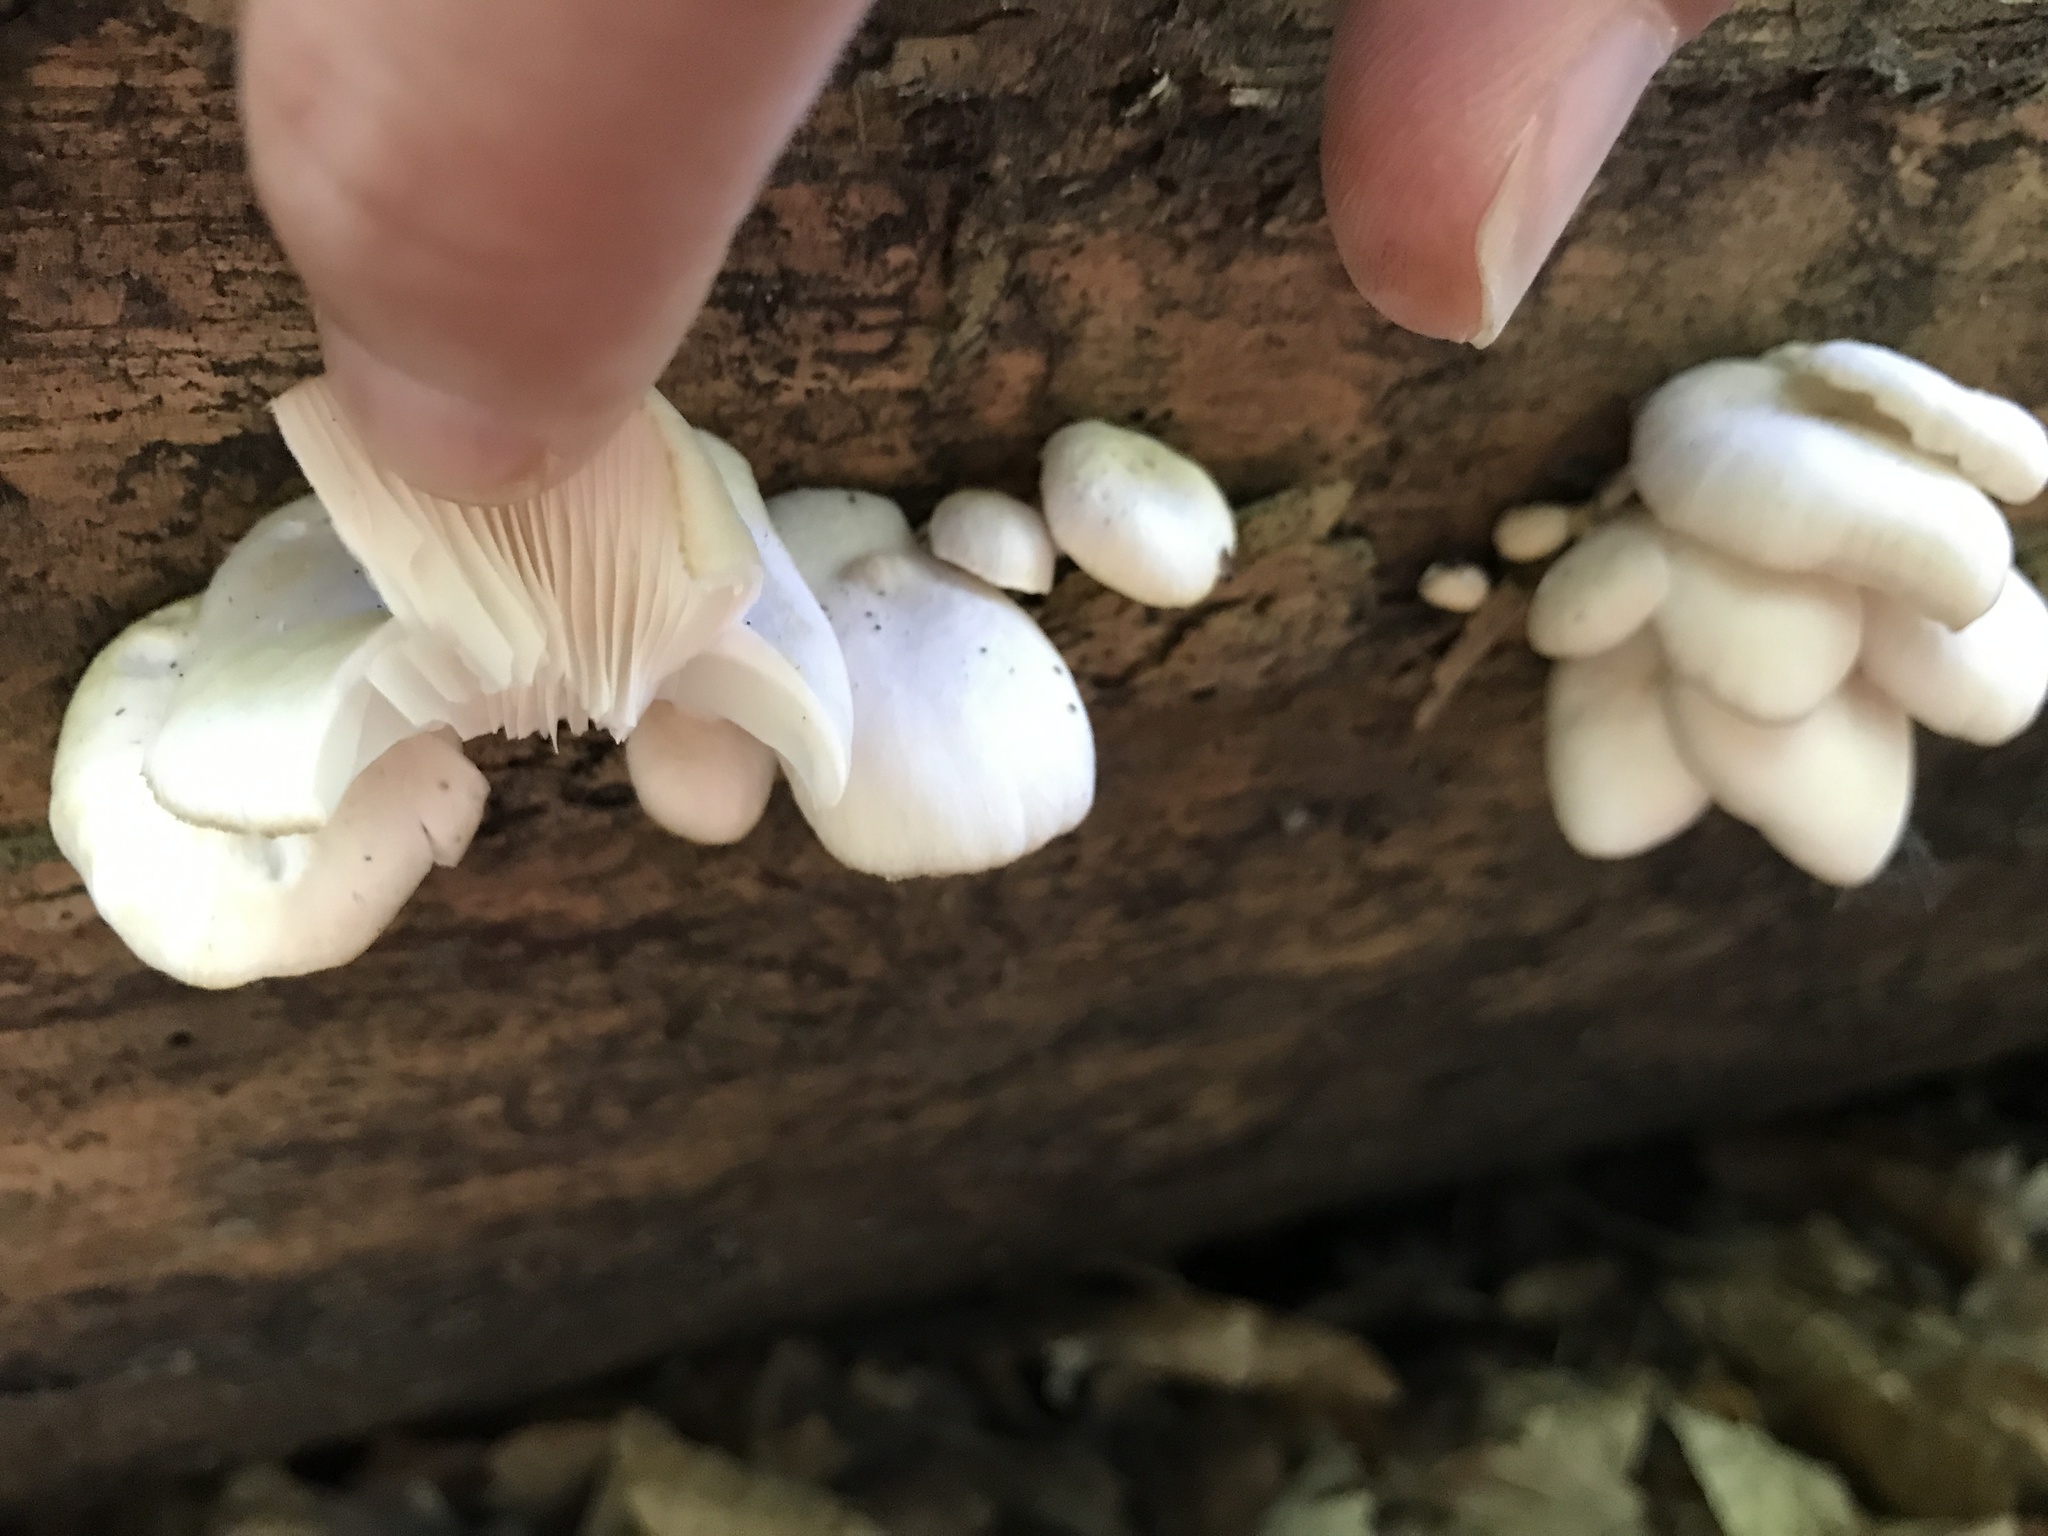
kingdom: Fungi
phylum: Basidiomycota
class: Agaricomycetes
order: Agaricales
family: Pleurotaceae
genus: Pleurotus
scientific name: Pleurotus pulmonarius
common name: Pale oyster
